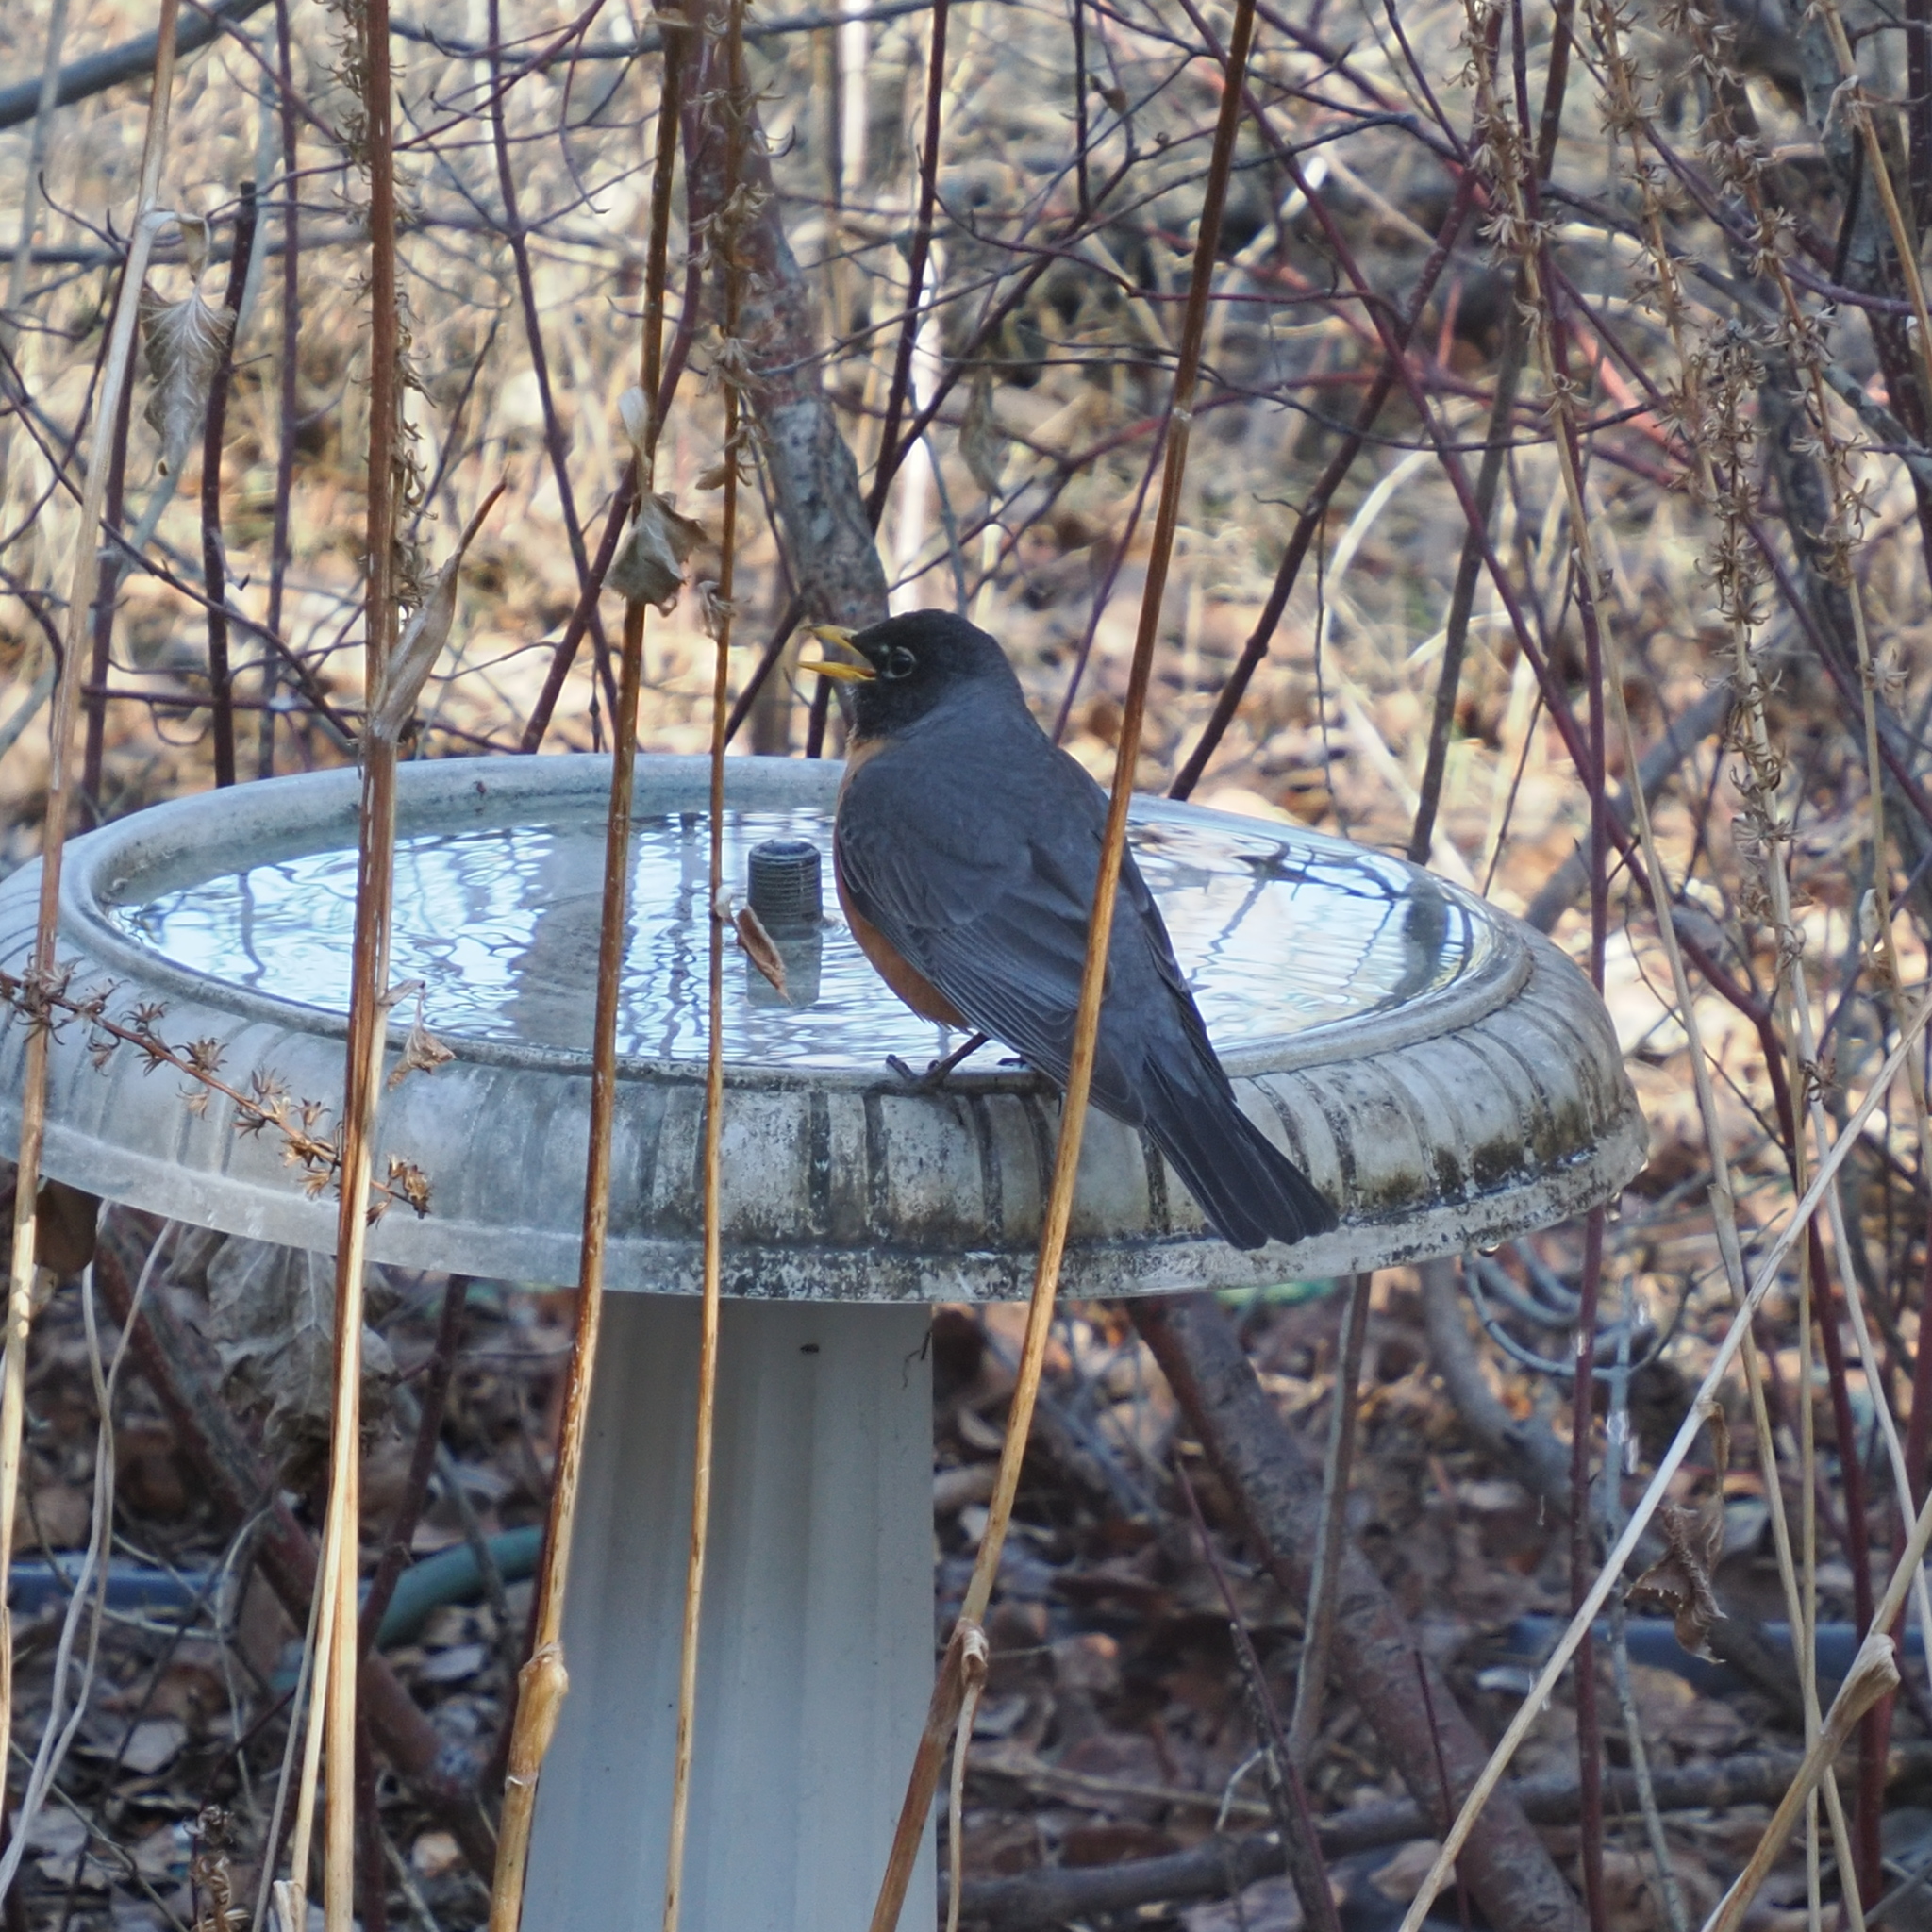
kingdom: Animalia
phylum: Chordata
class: Aves
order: Passeriformes
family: Turdidae
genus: Turdus
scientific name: Turdus migratorius
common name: American robin
